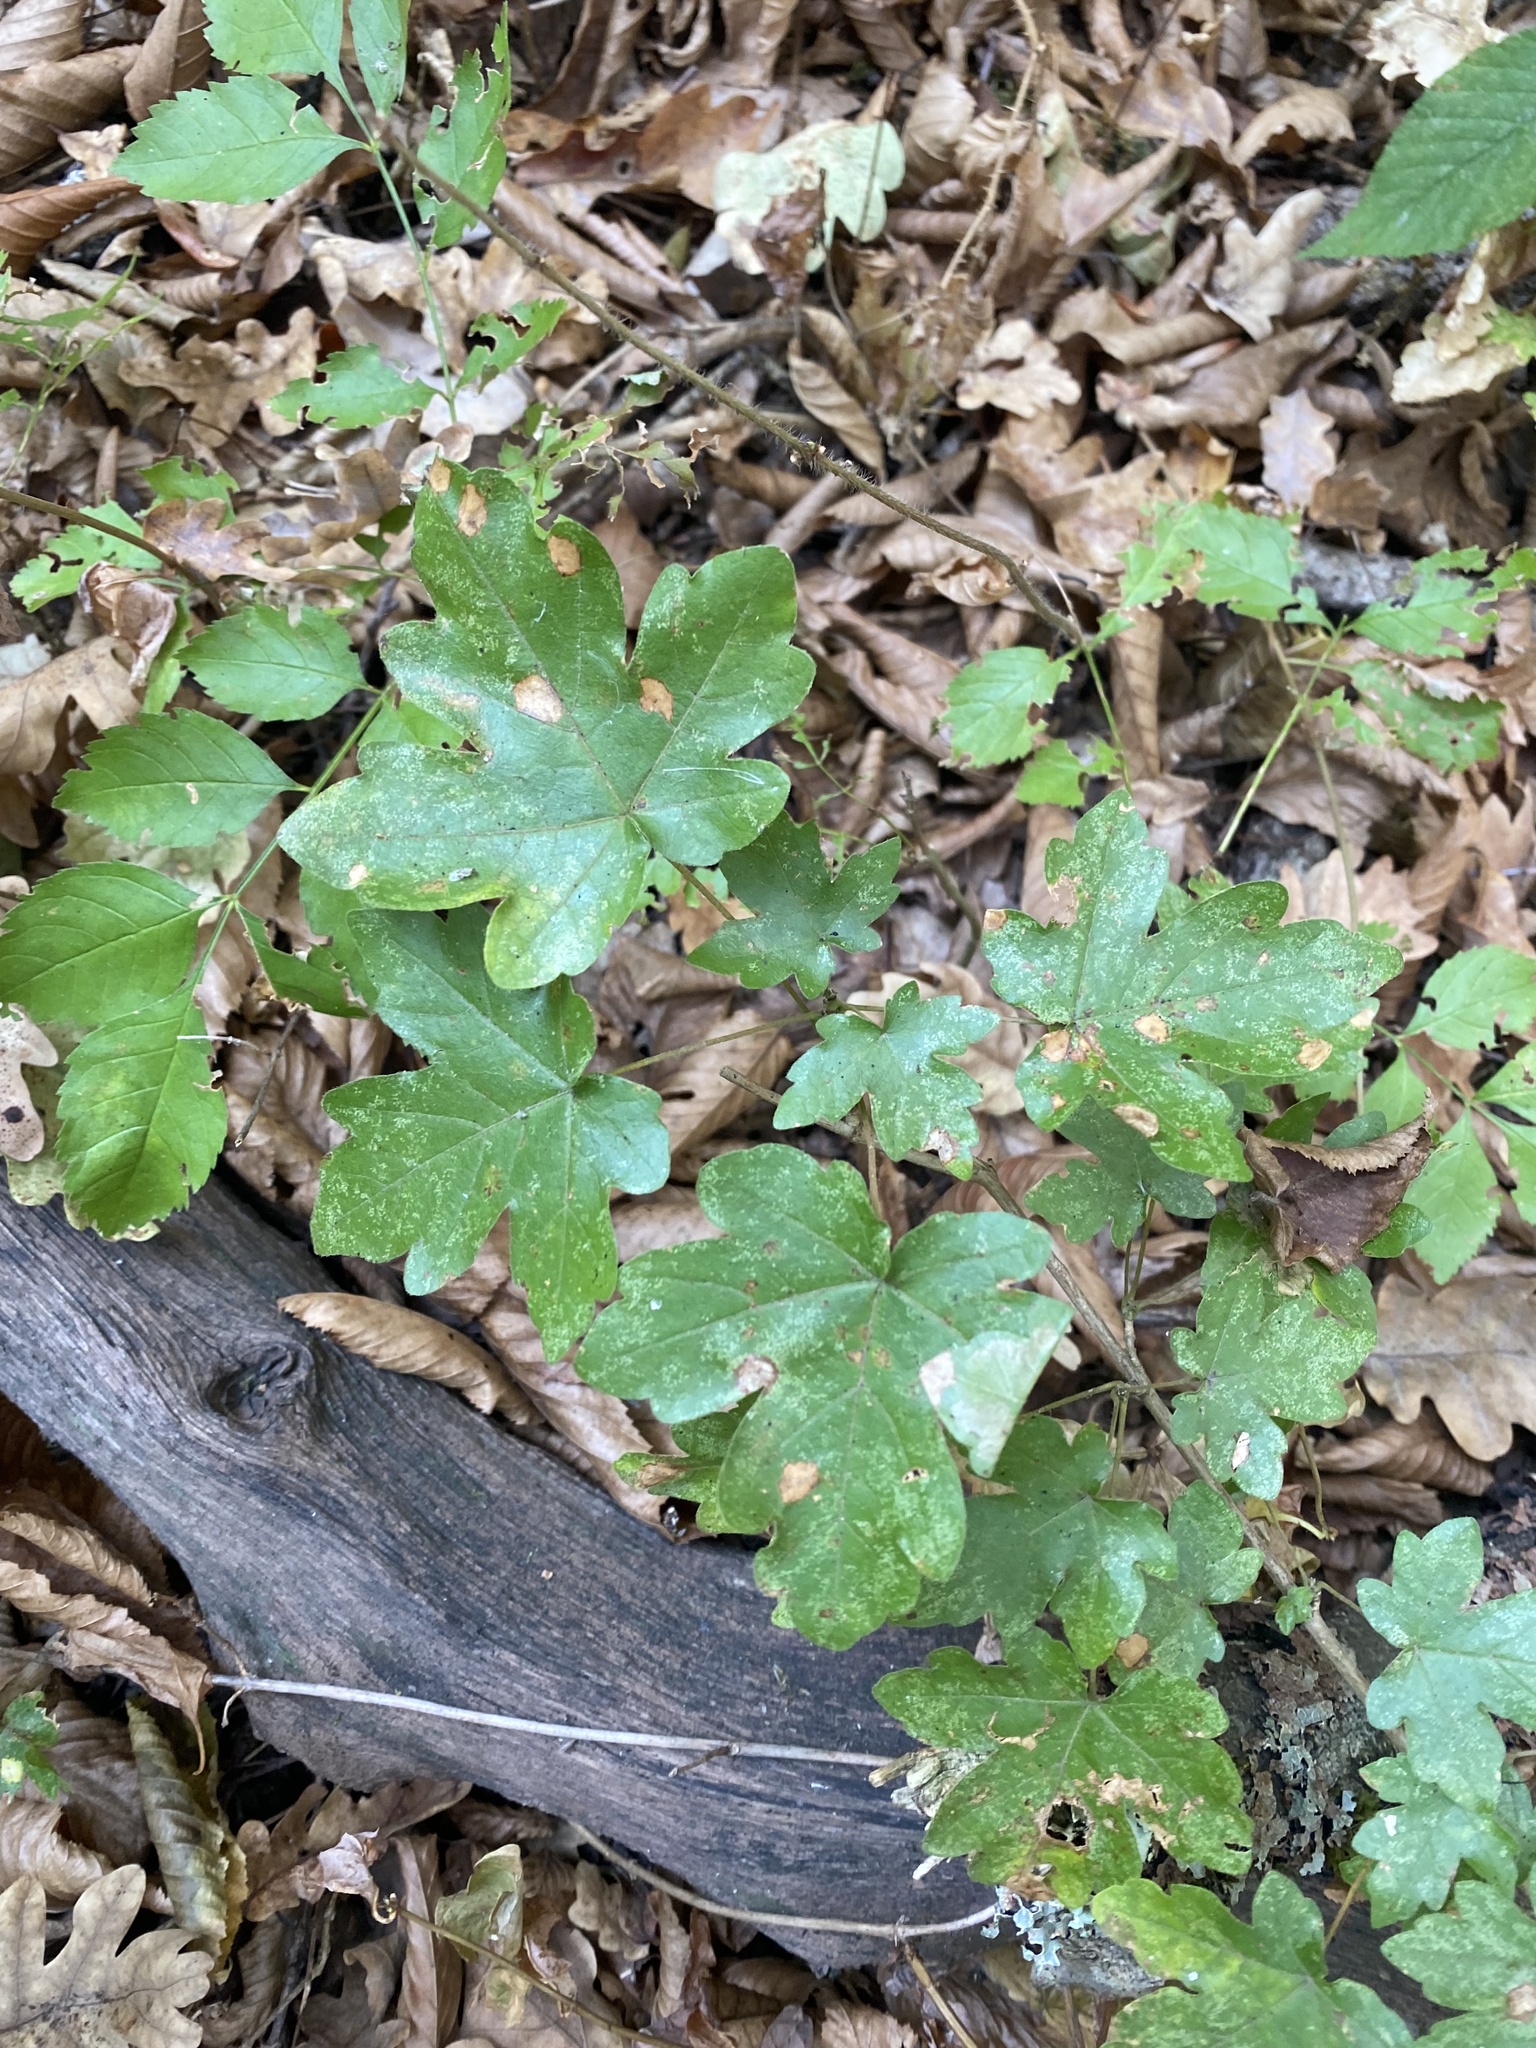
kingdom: Plantae
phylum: Tracheophyta
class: Magnoliopsida
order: Sapindales
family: Sapindaceae
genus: Acer
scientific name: Acer campestre
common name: Field maple
